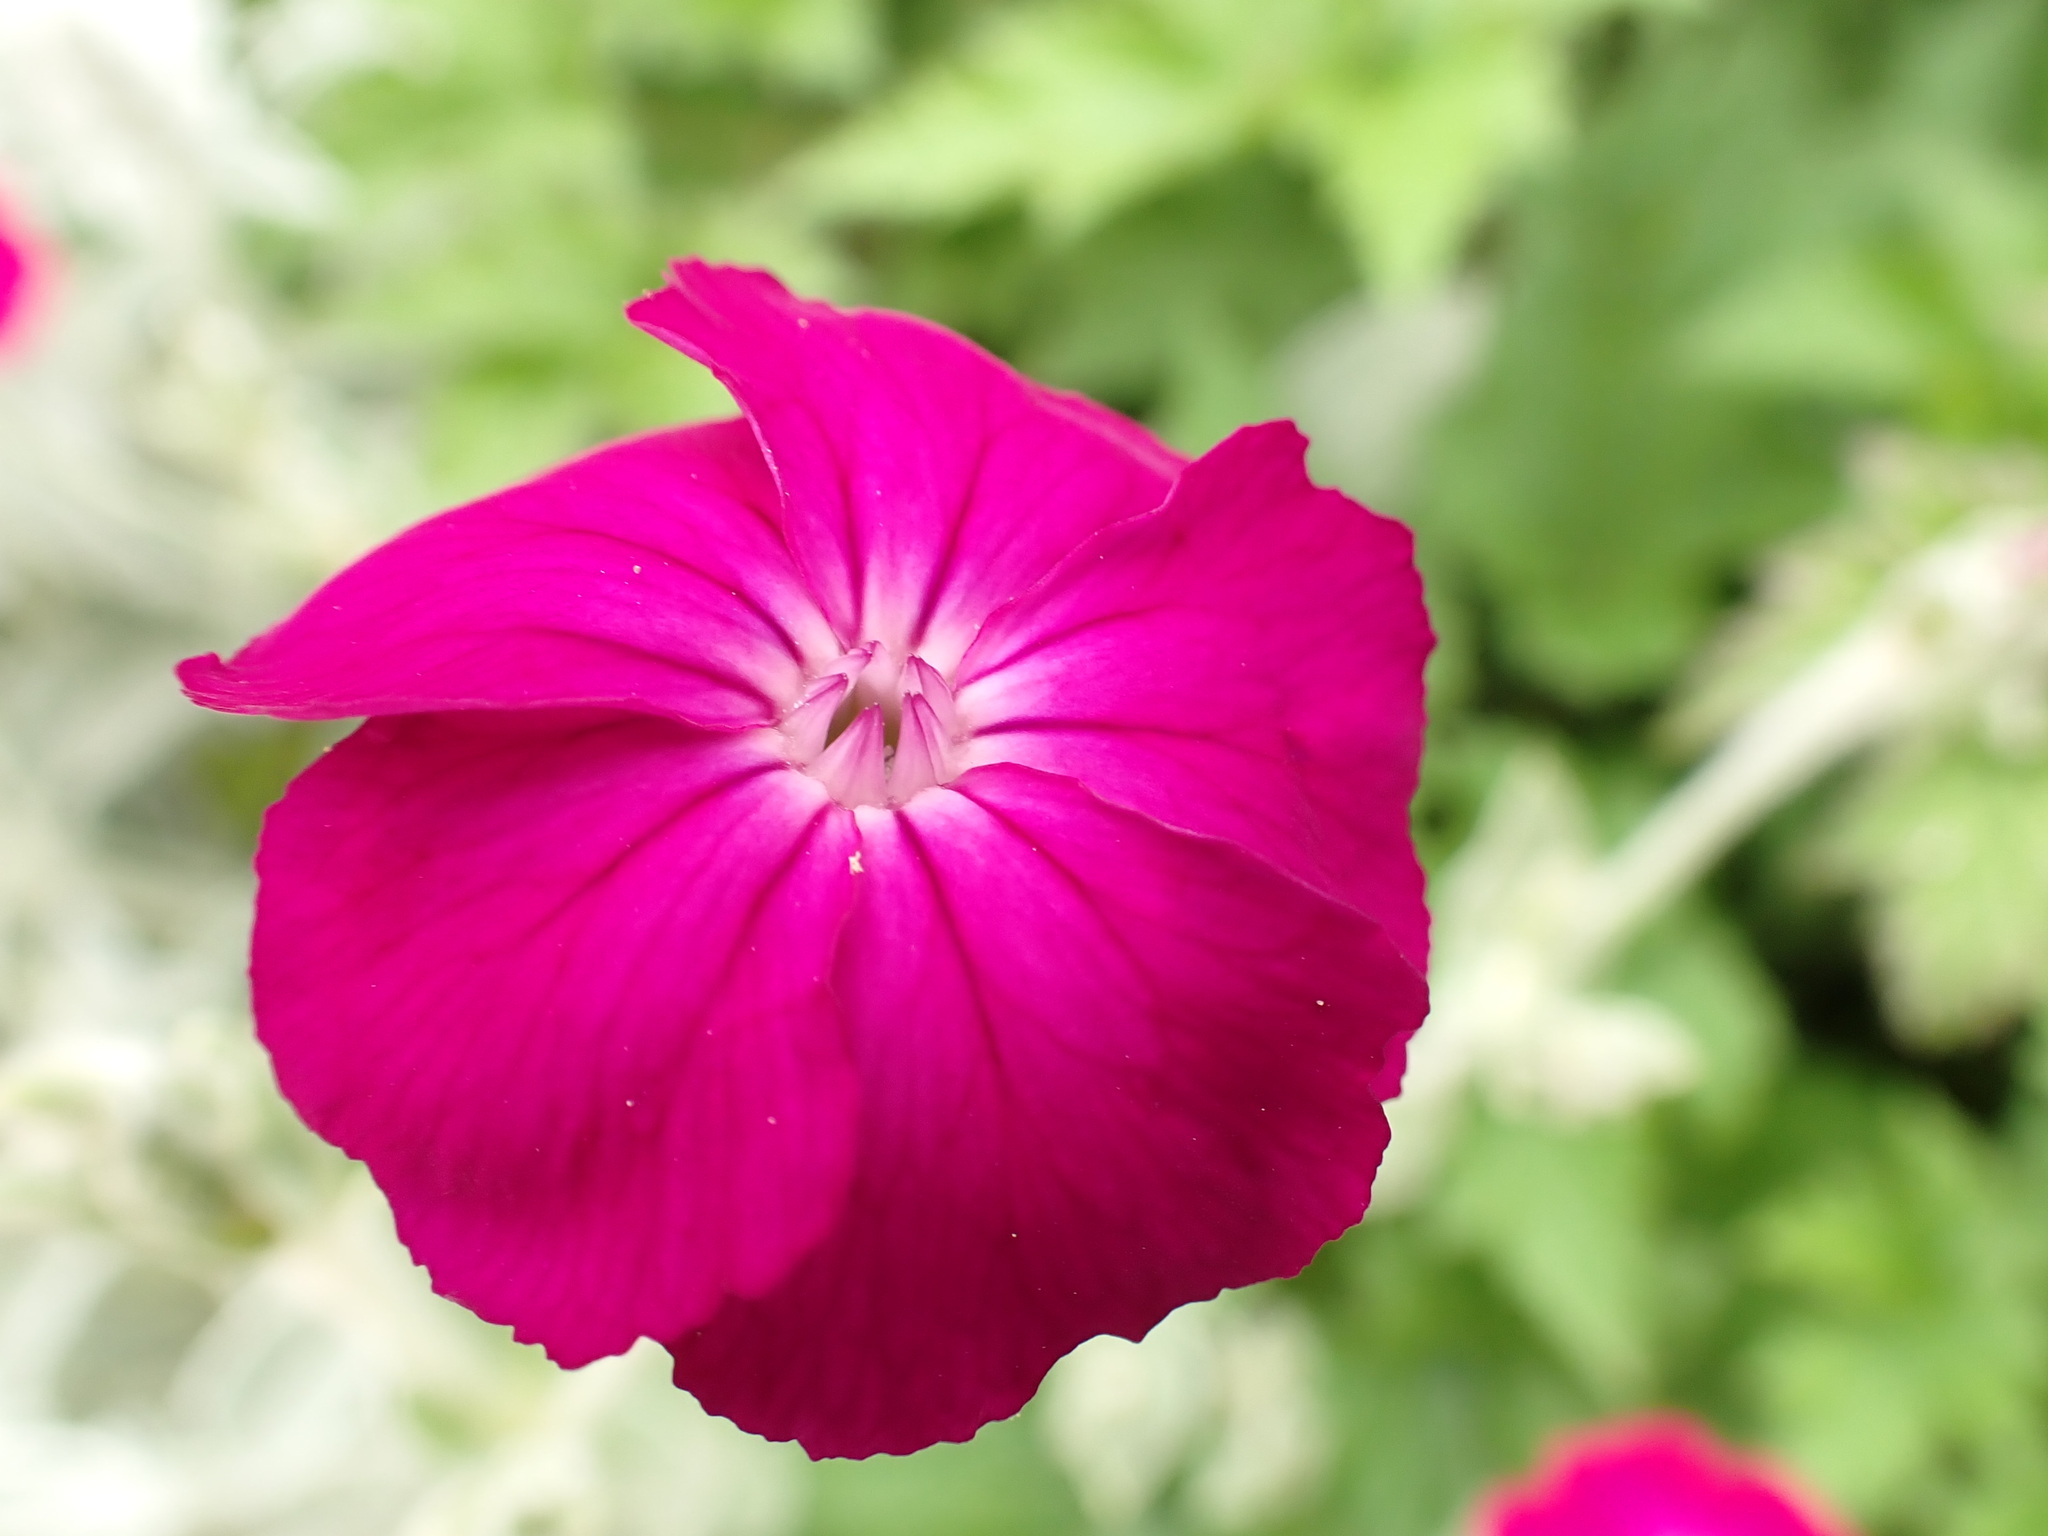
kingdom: Plantae
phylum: Tracheophyta
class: Magnoliopsida
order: Caryophyllales
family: Caryophyllaceae
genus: Silene
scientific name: Silene coronaria
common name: Rose campion
